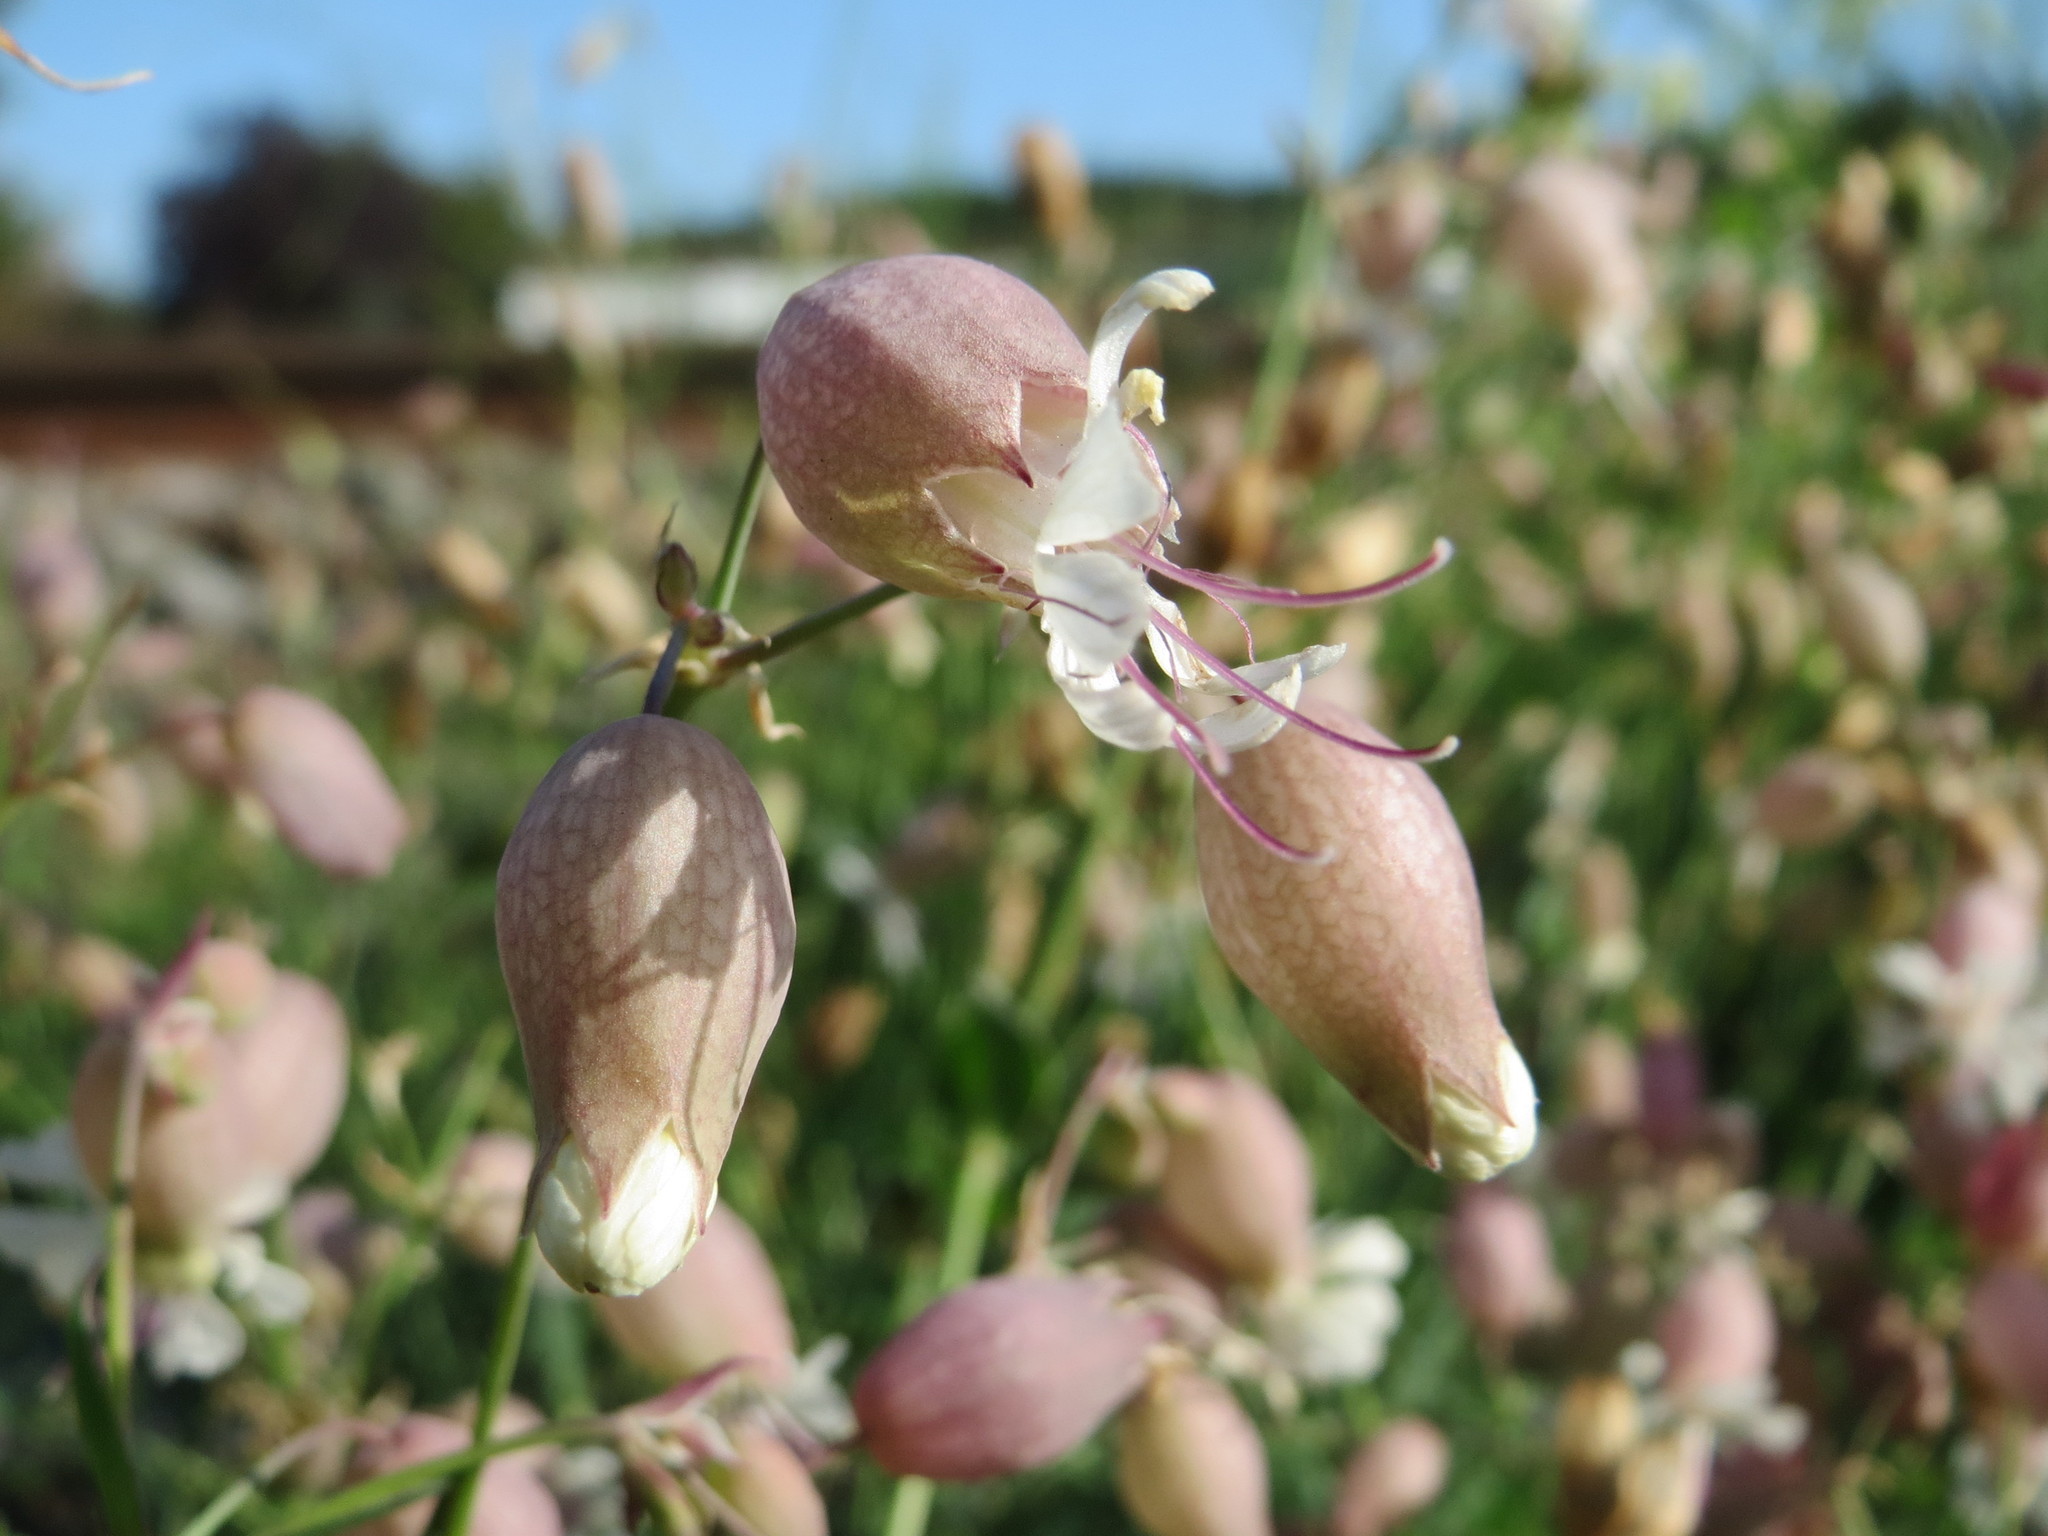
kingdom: Plantae
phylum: Tracheophyta
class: Magnoliopsida
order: Caryophyllales
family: Caryophyllaceae
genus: Silene
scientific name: Silene vulgaris
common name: Bladder campion
